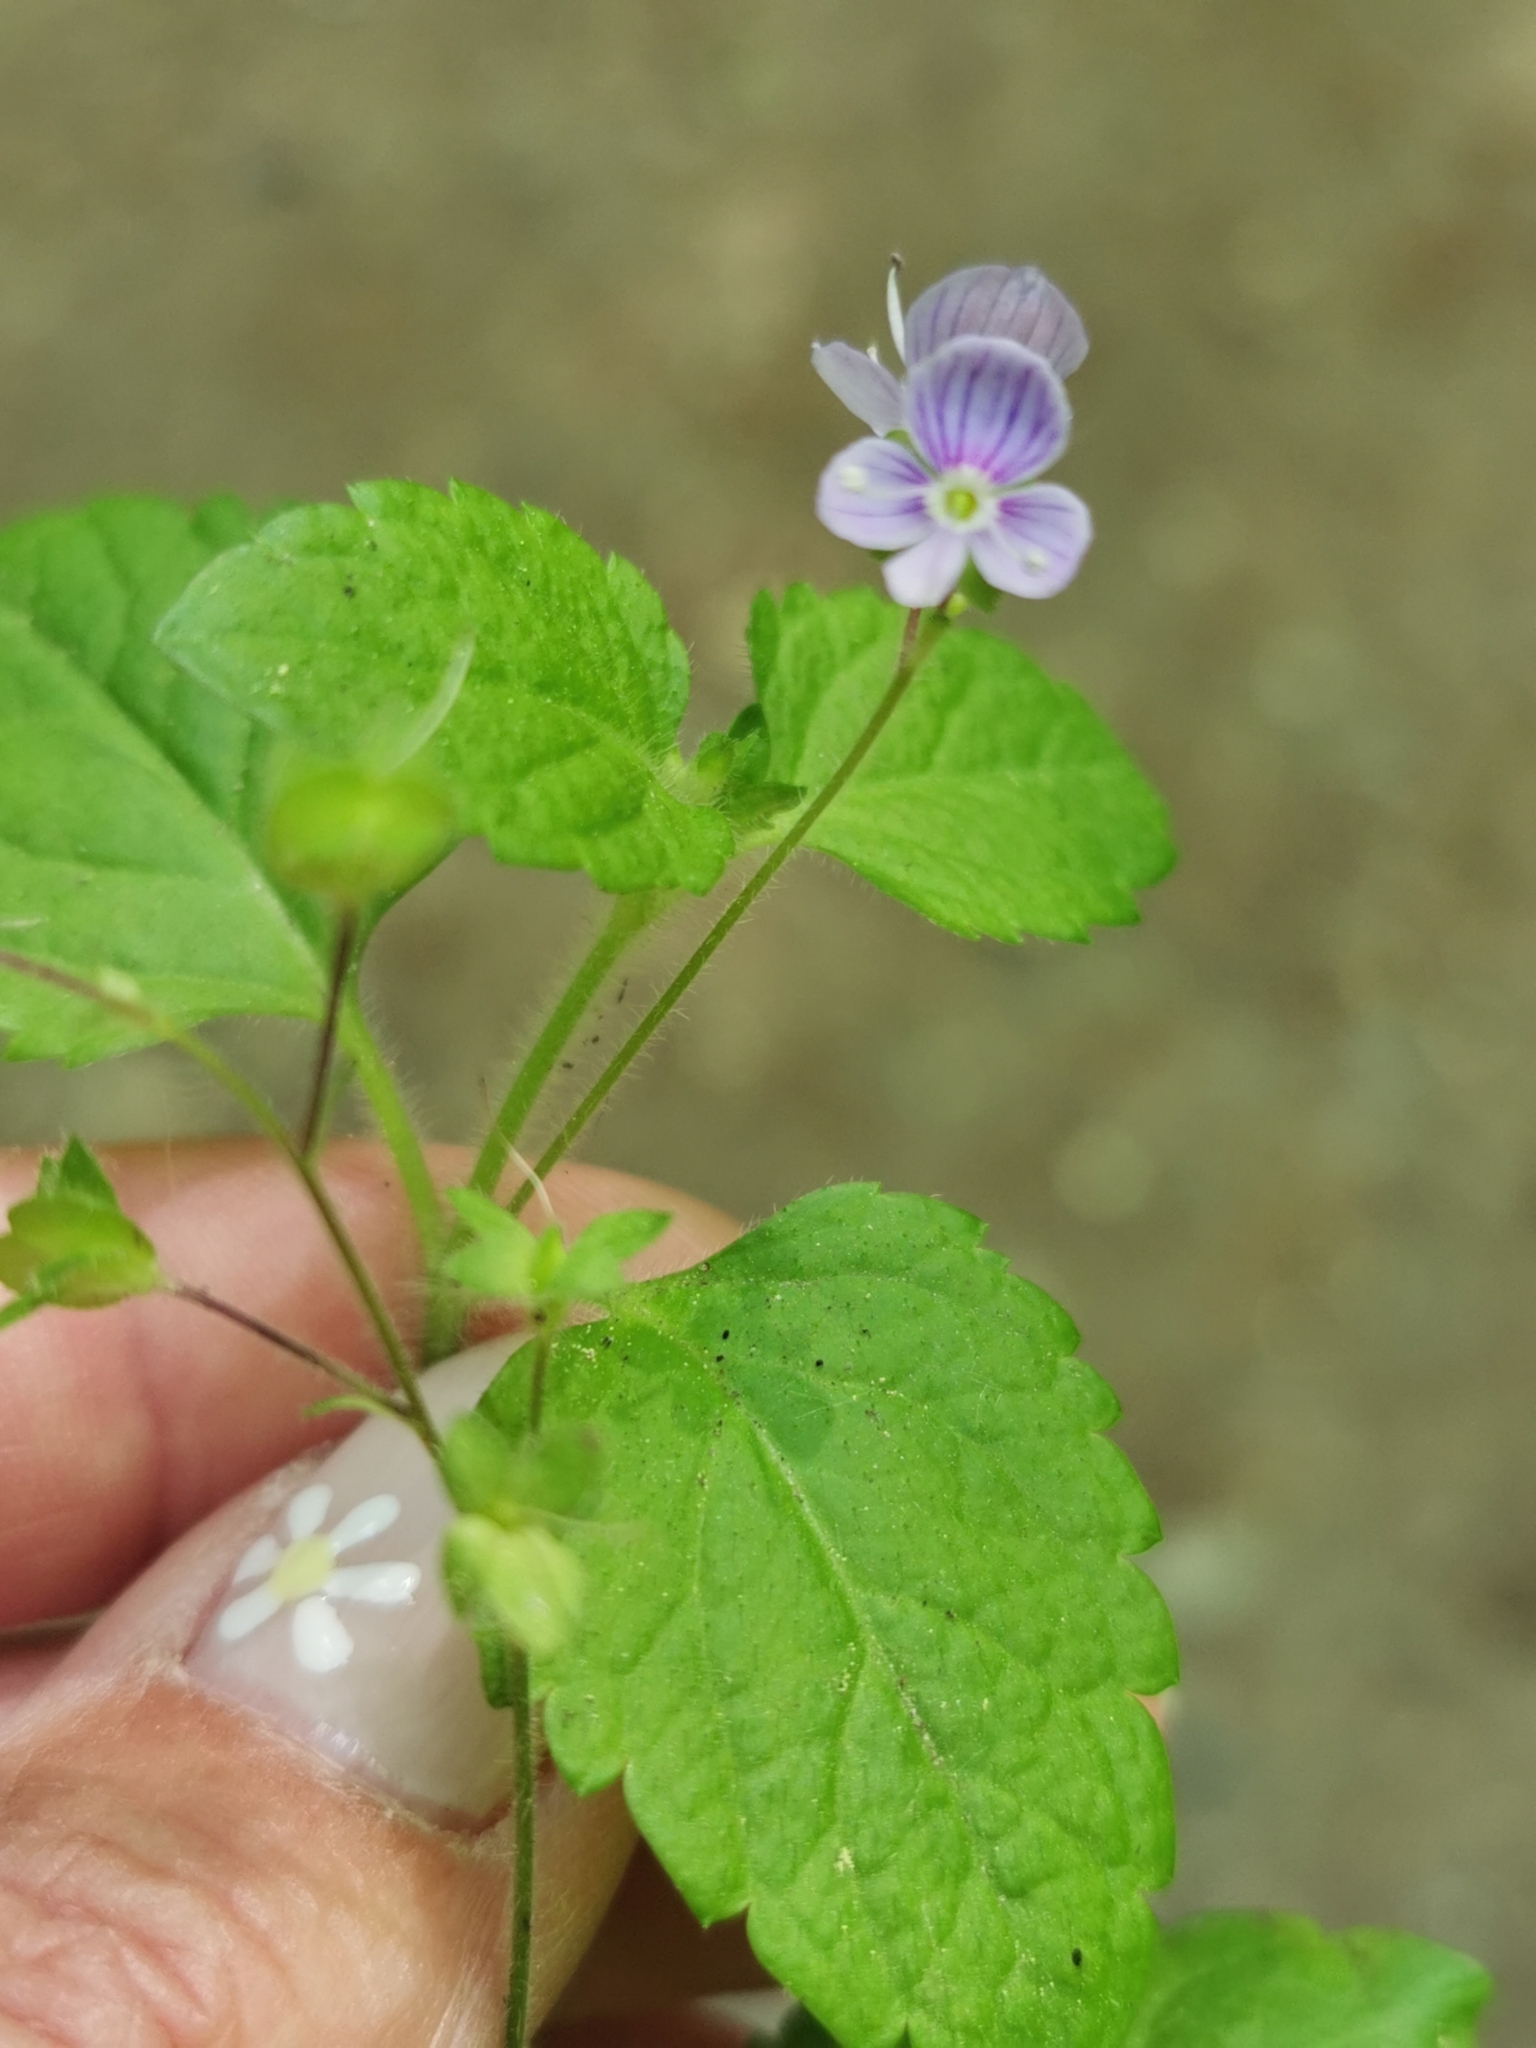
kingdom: Plantae
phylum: Tracheophyta
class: Magnoliopsida
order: Lamiales
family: Plantaginaceae
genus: Veronica
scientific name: Veronica montana
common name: Wood speedwell
